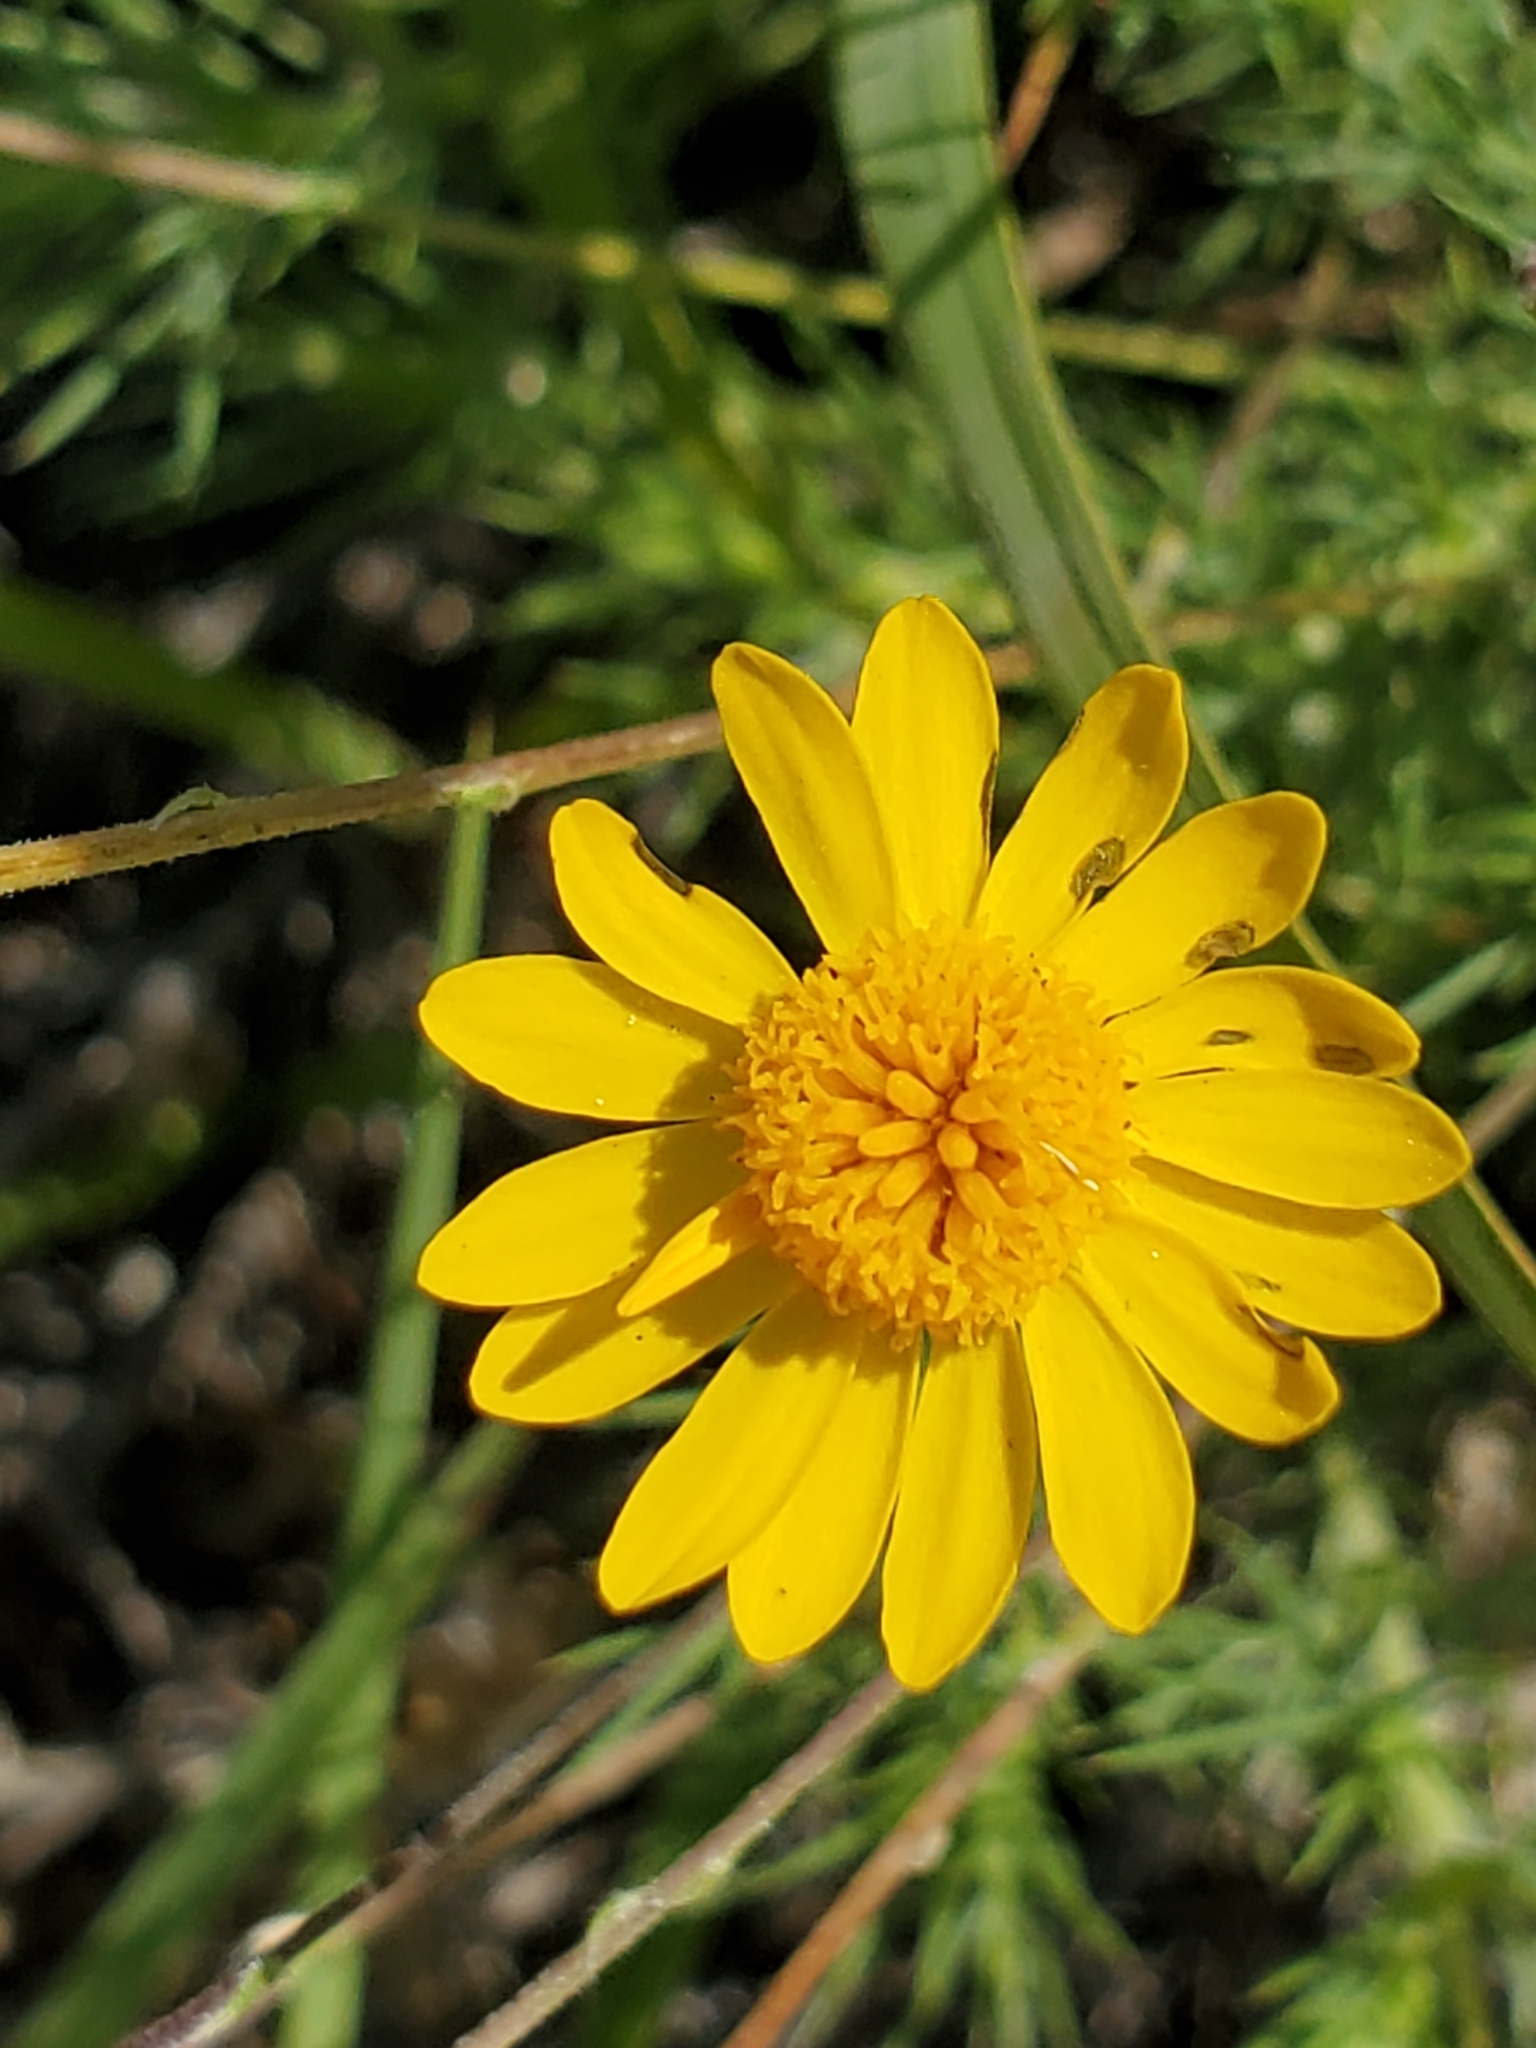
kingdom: Plantae
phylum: Tracheophyta
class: Magnoliopsida
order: Asterales
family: Asteraceae
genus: Thymophylla
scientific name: Thymophylla pentachaeta
